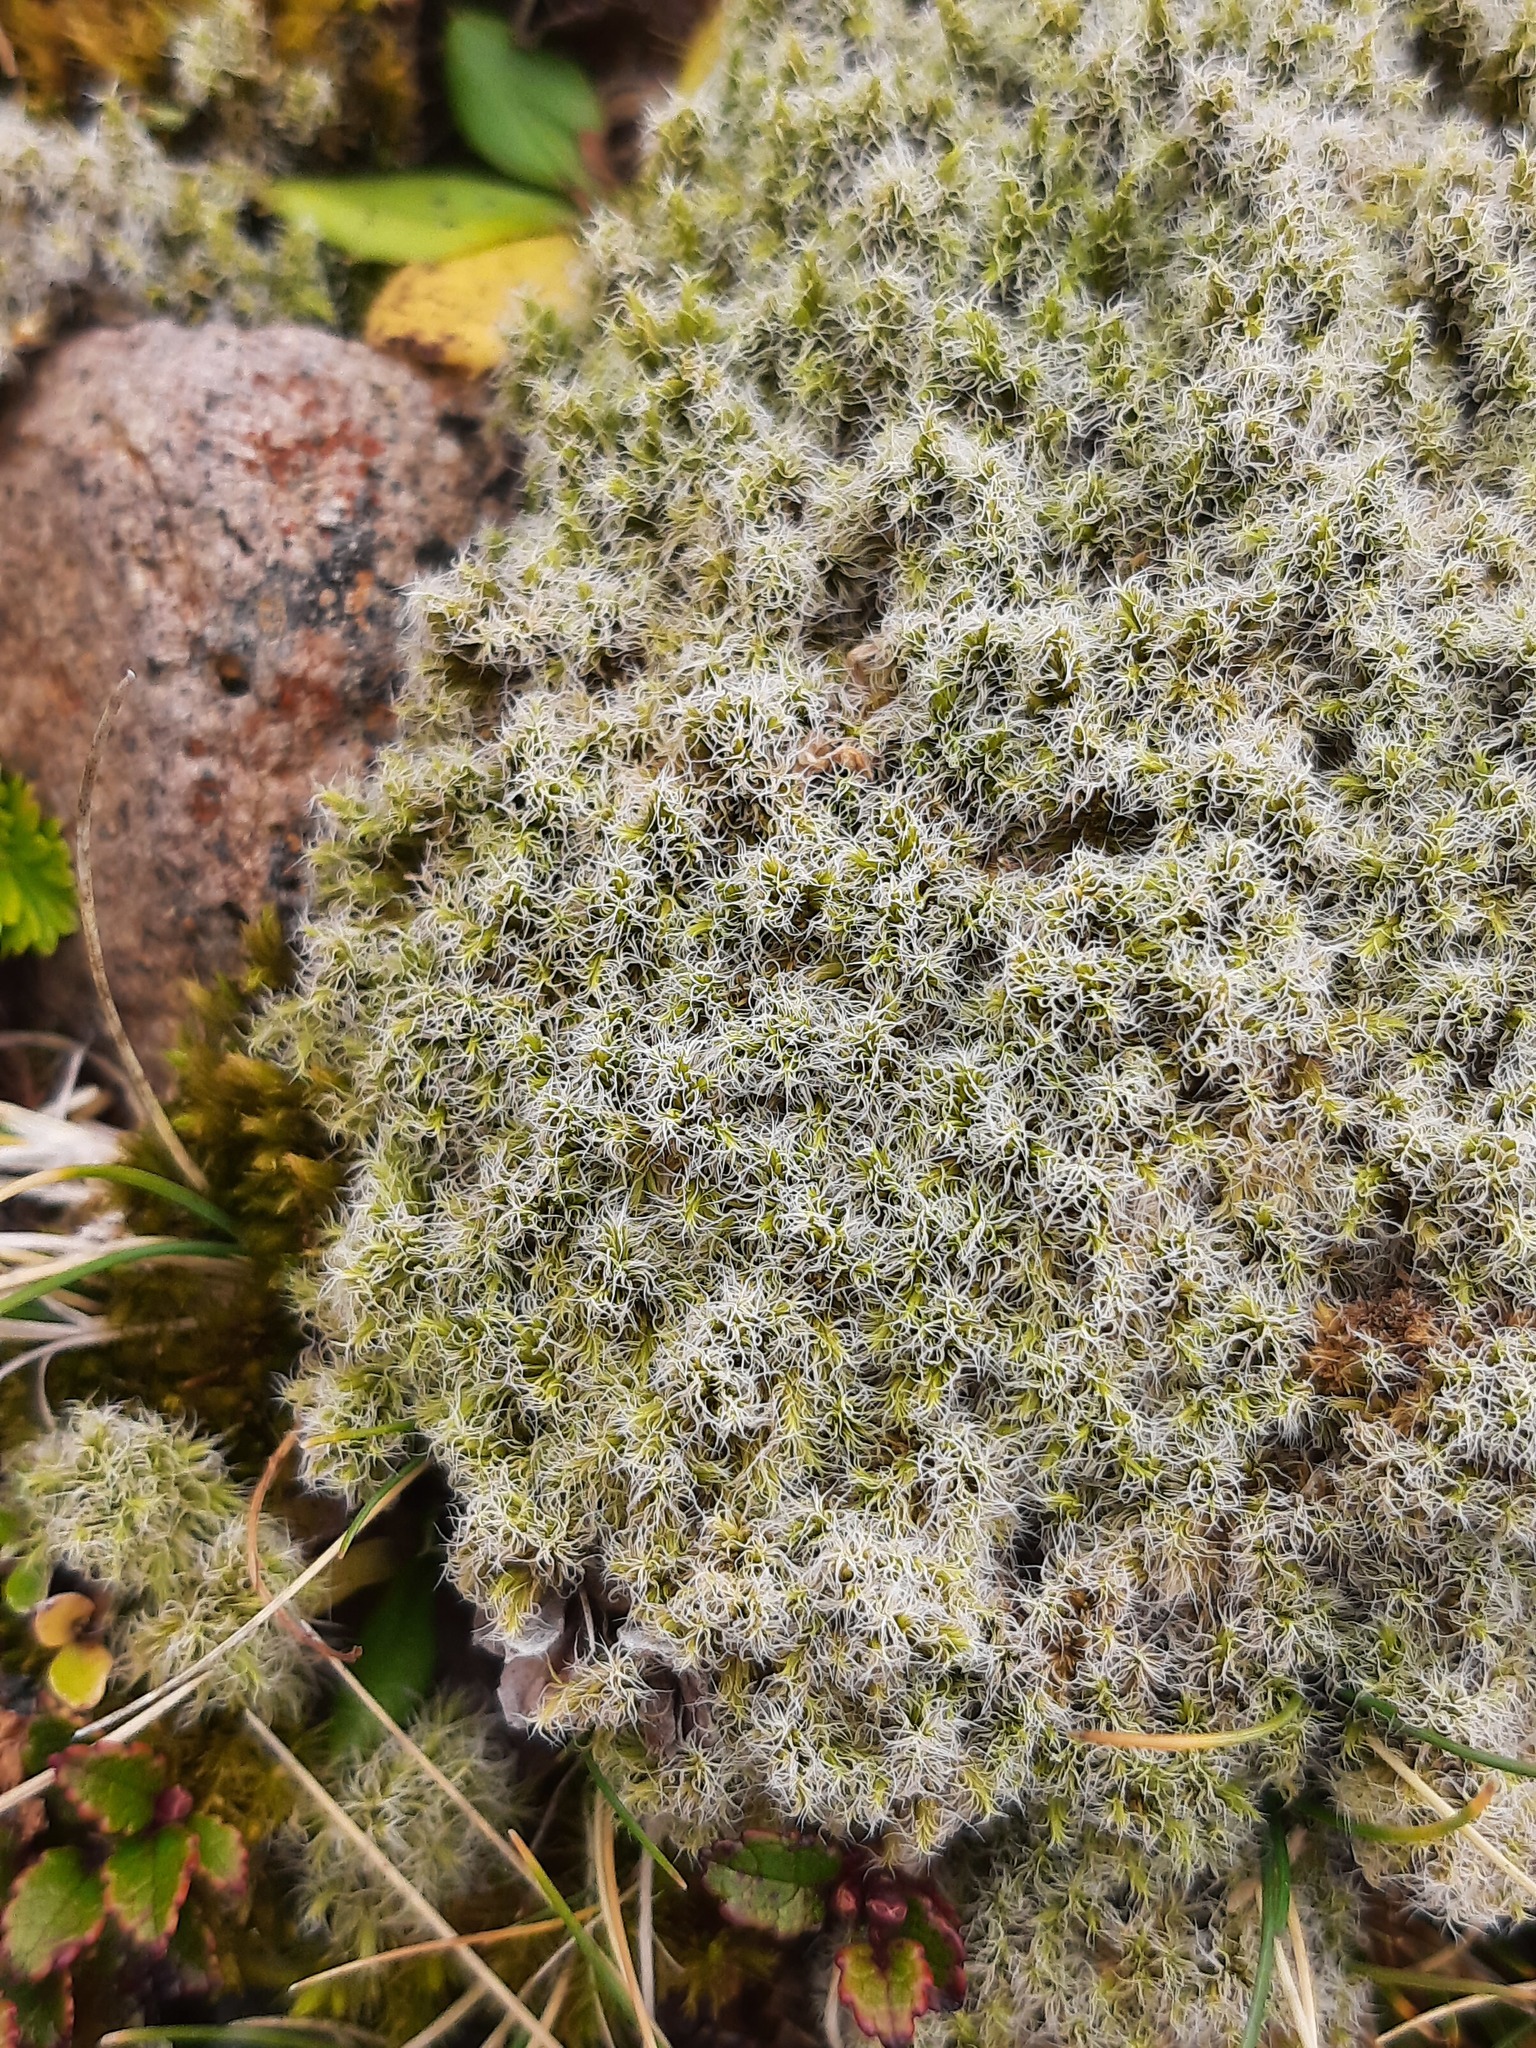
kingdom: Plantae
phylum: Bryophyta
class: Bryopsida
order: Grimmiales
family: Grimmiaceae
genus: Racomitrium
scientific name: Racomitrium lanuginosum
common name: Hoary rock moss
